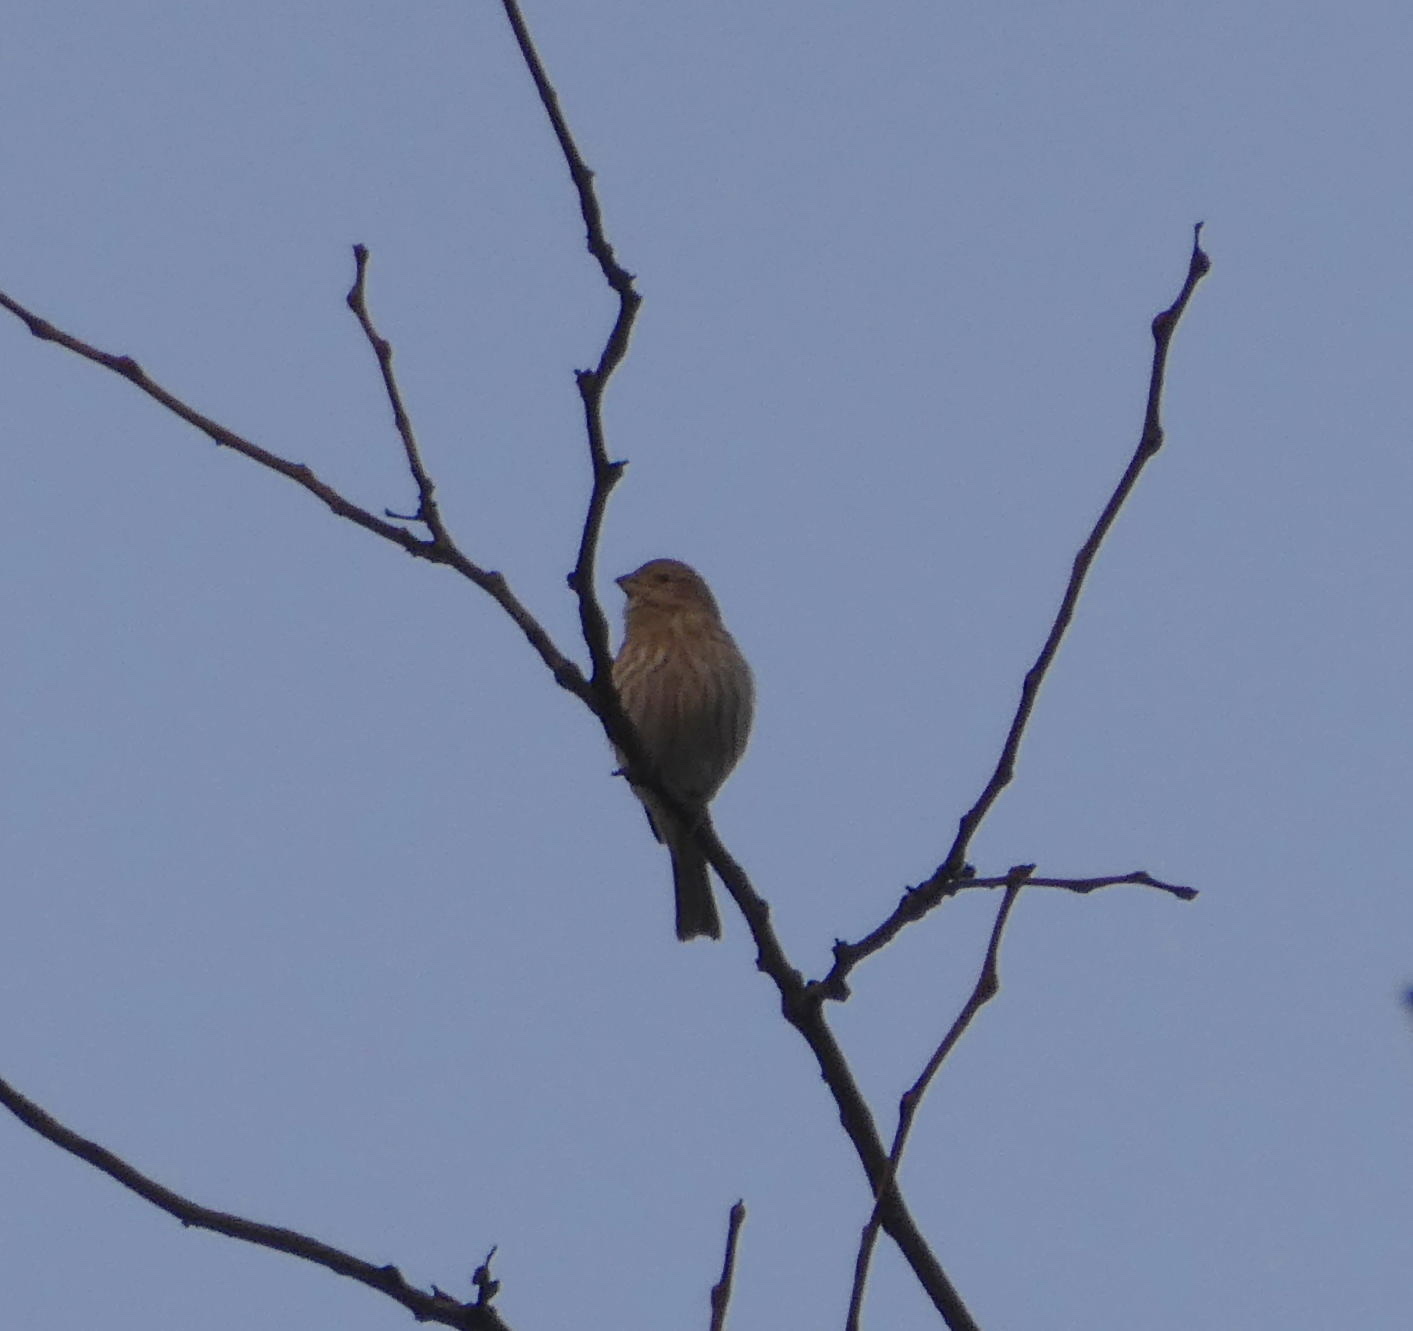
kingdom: Animalia
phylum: Chordata
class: Aves
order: Passeriformes
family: Fringillidae
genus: Haemorhous
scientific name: Haemorhous mexicanus
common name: House finch
